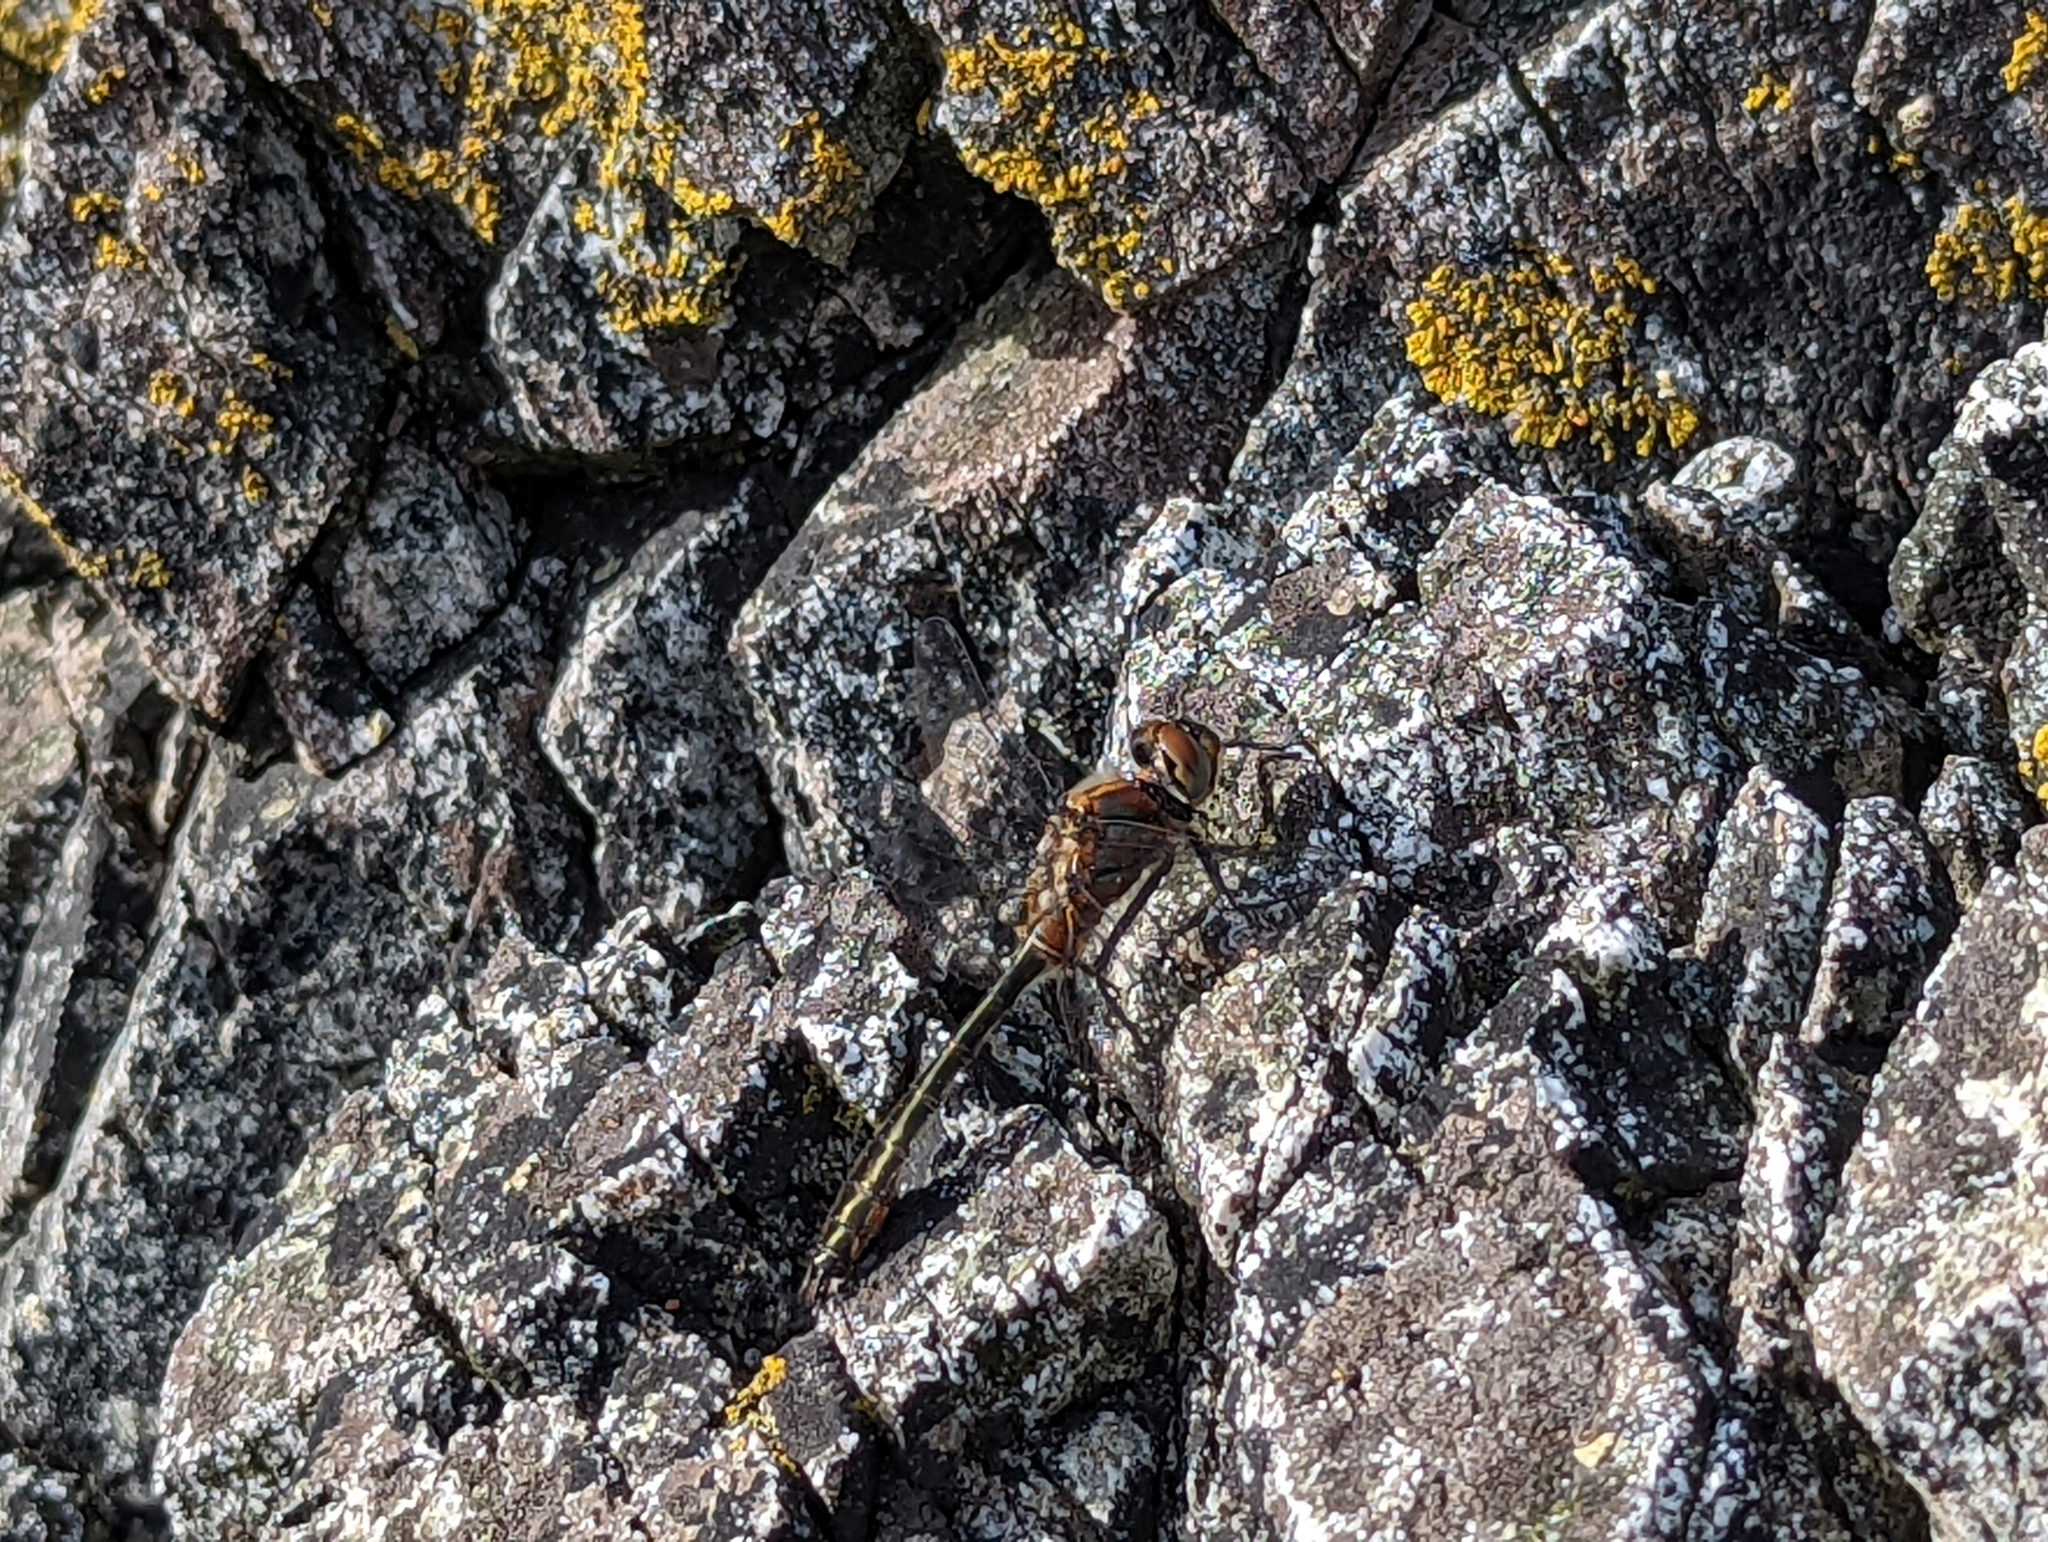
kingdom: Animalia
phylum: Arthropoda
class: Insecta
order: Odonata
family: Corduliidae
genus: Cordulia
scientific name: Cordulia shurtleffii
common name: American emerald
